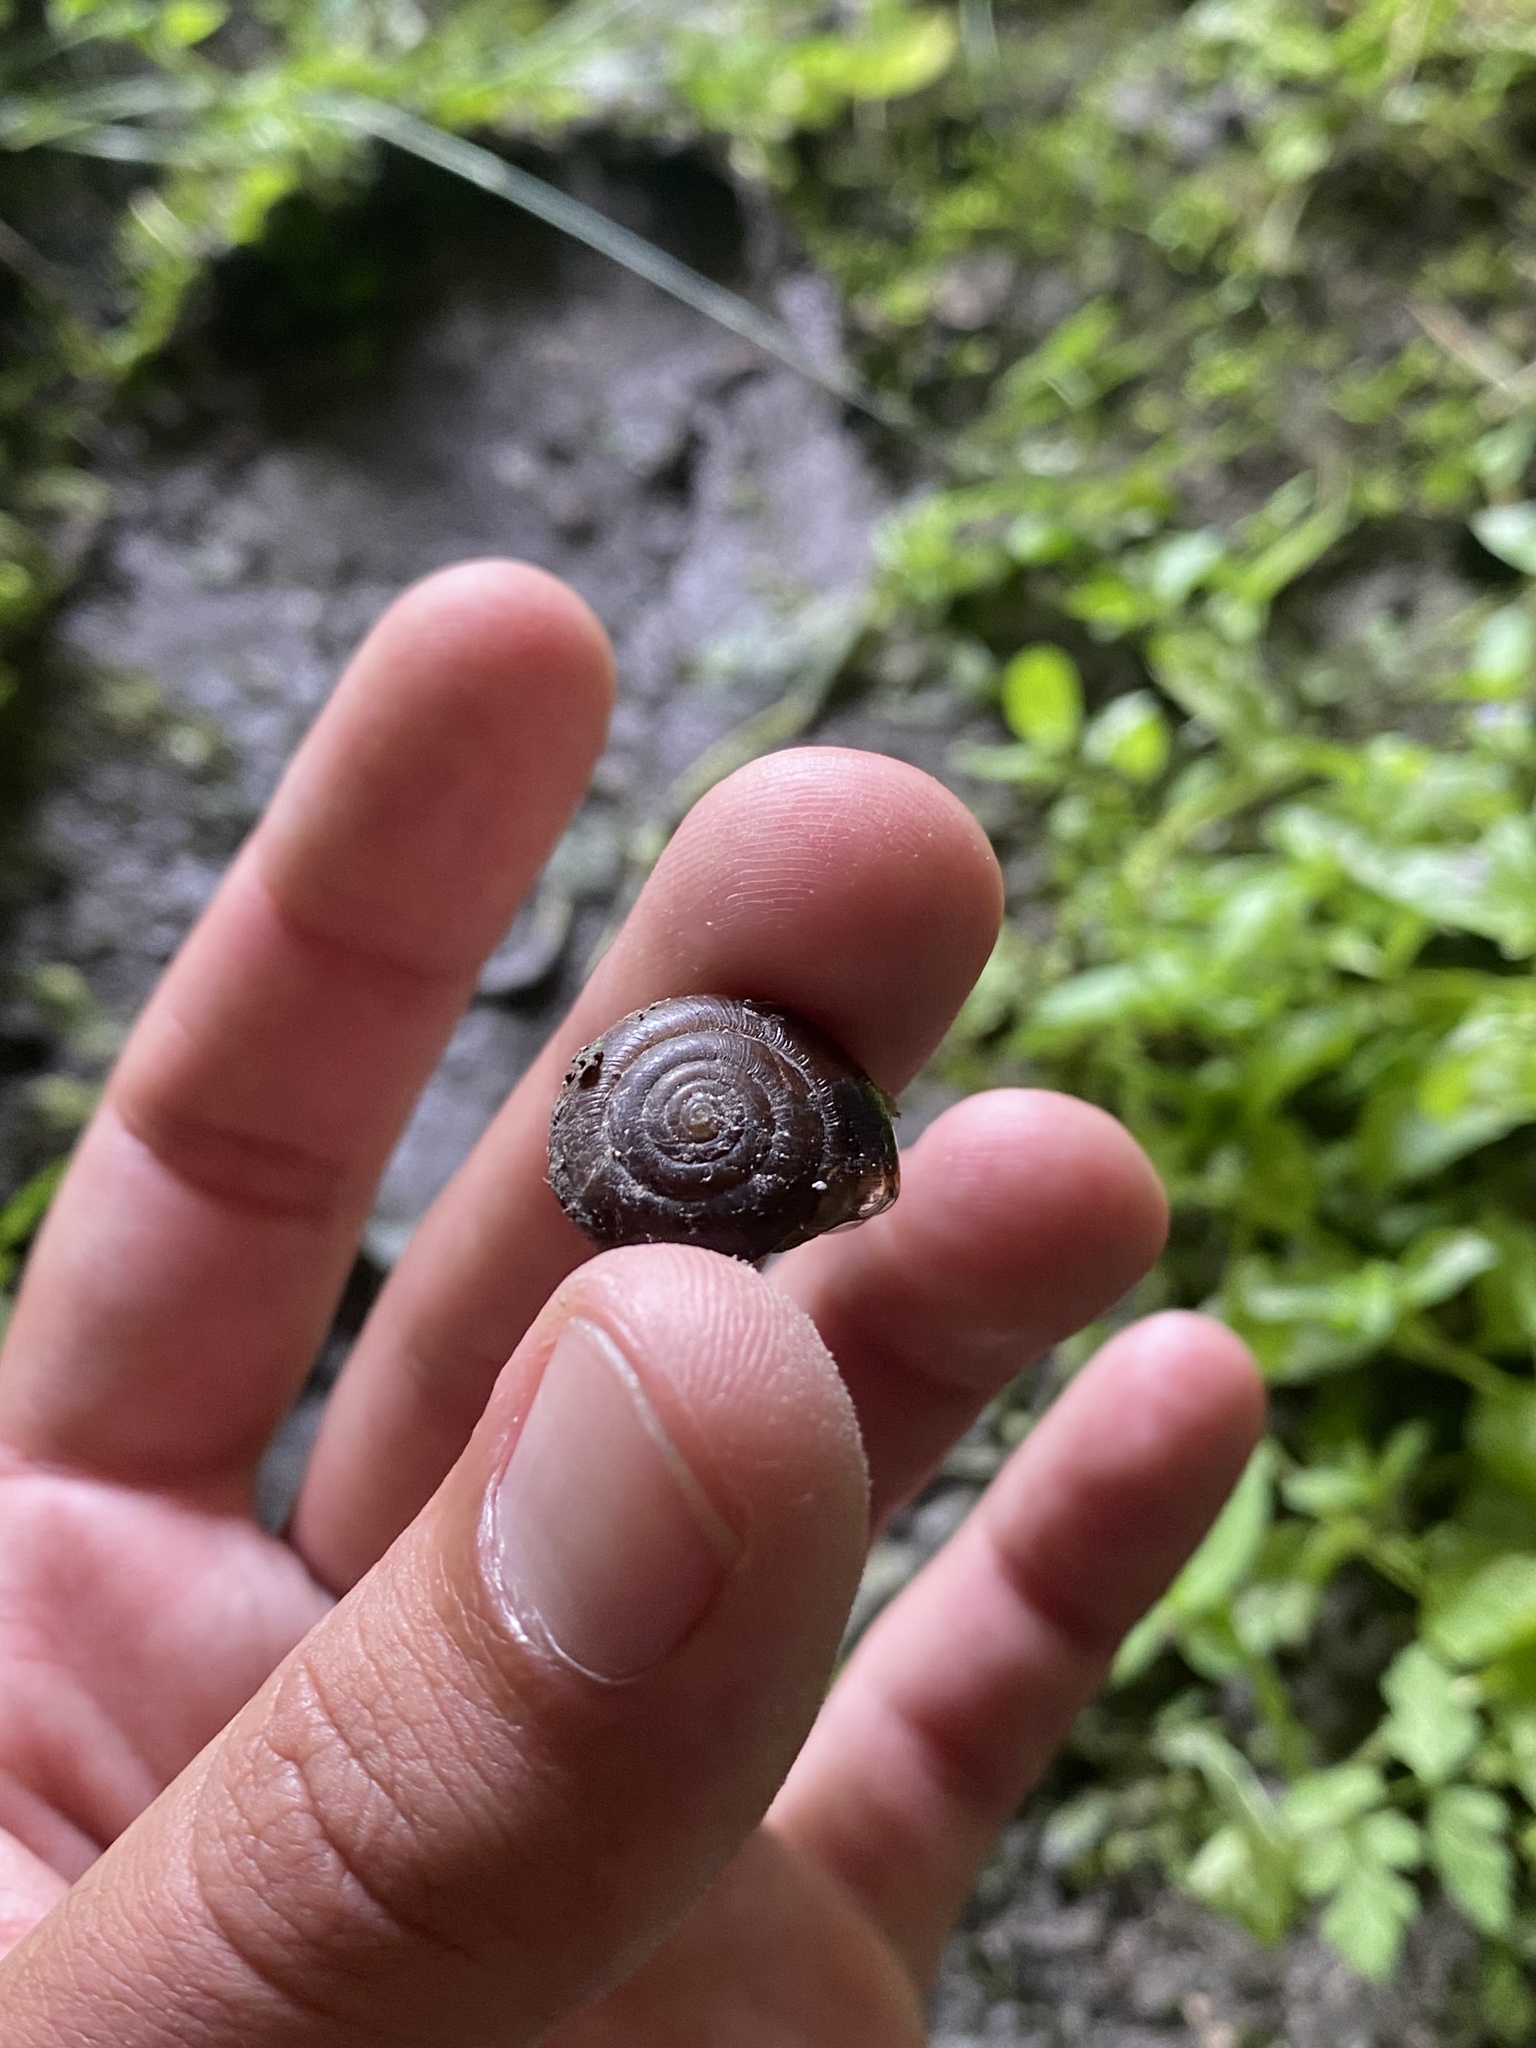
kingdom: Animalia
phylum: Mollusca
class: Gastropoda
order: Stylommatophora
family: Oxychilidae
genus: Oxychilus
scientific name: Oxychilus
